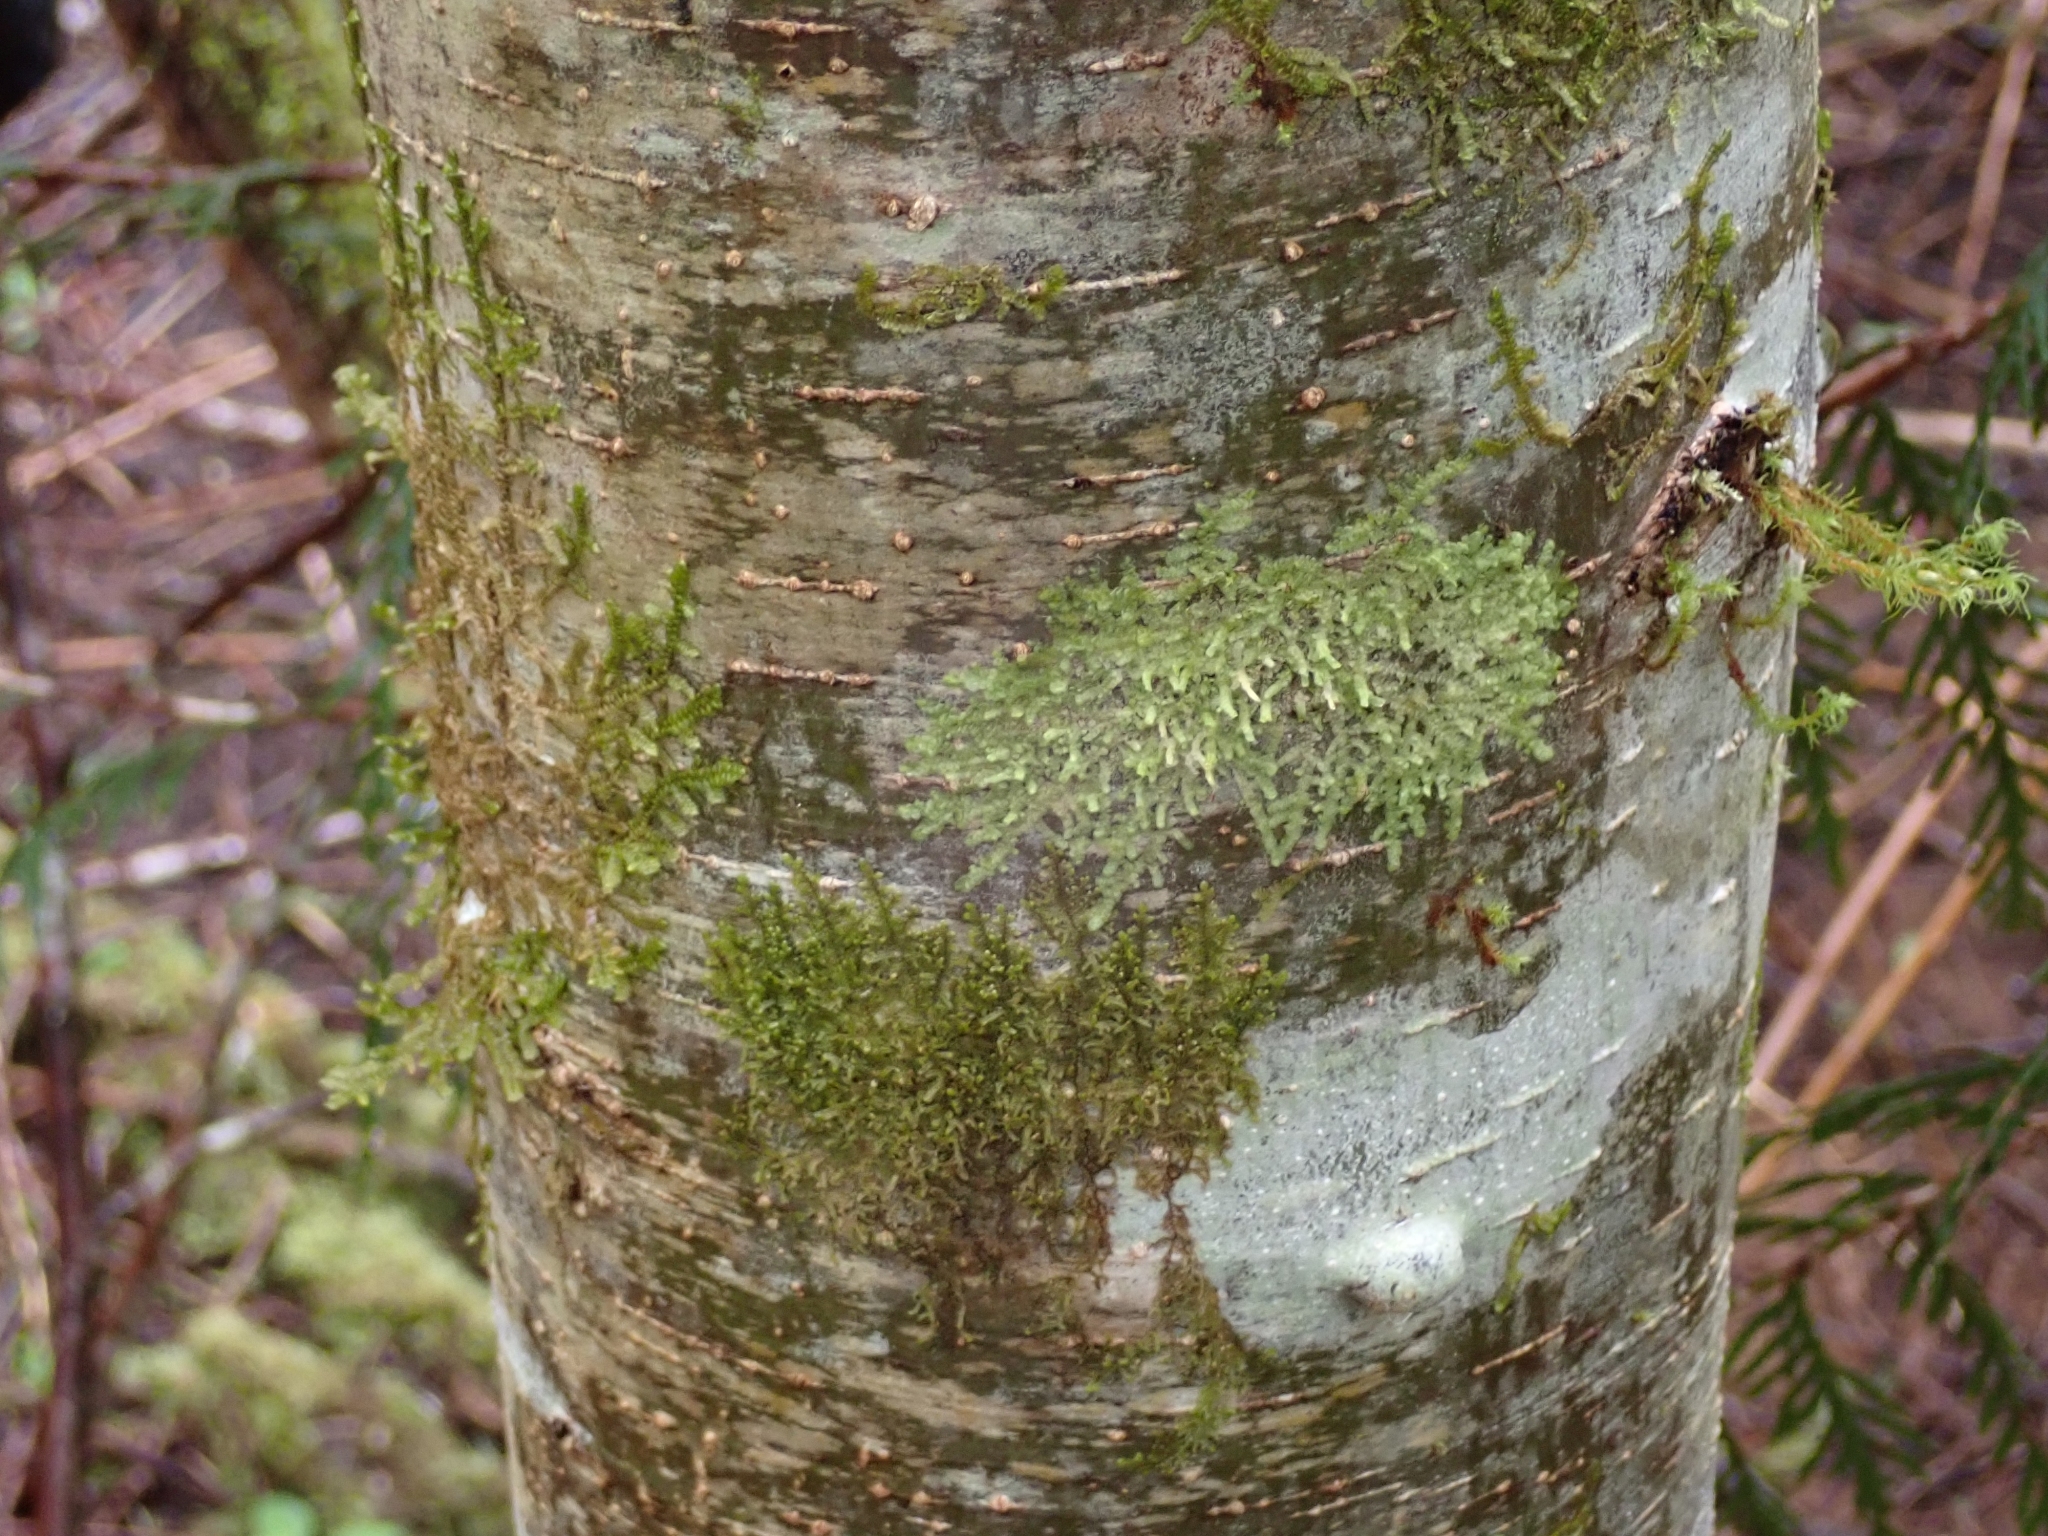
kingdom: Plantae
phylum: Marchantiophyta
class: Jungermanniopsida
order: Porellales
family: Radulaceae
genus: Radula
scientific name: Radula bolanderi
